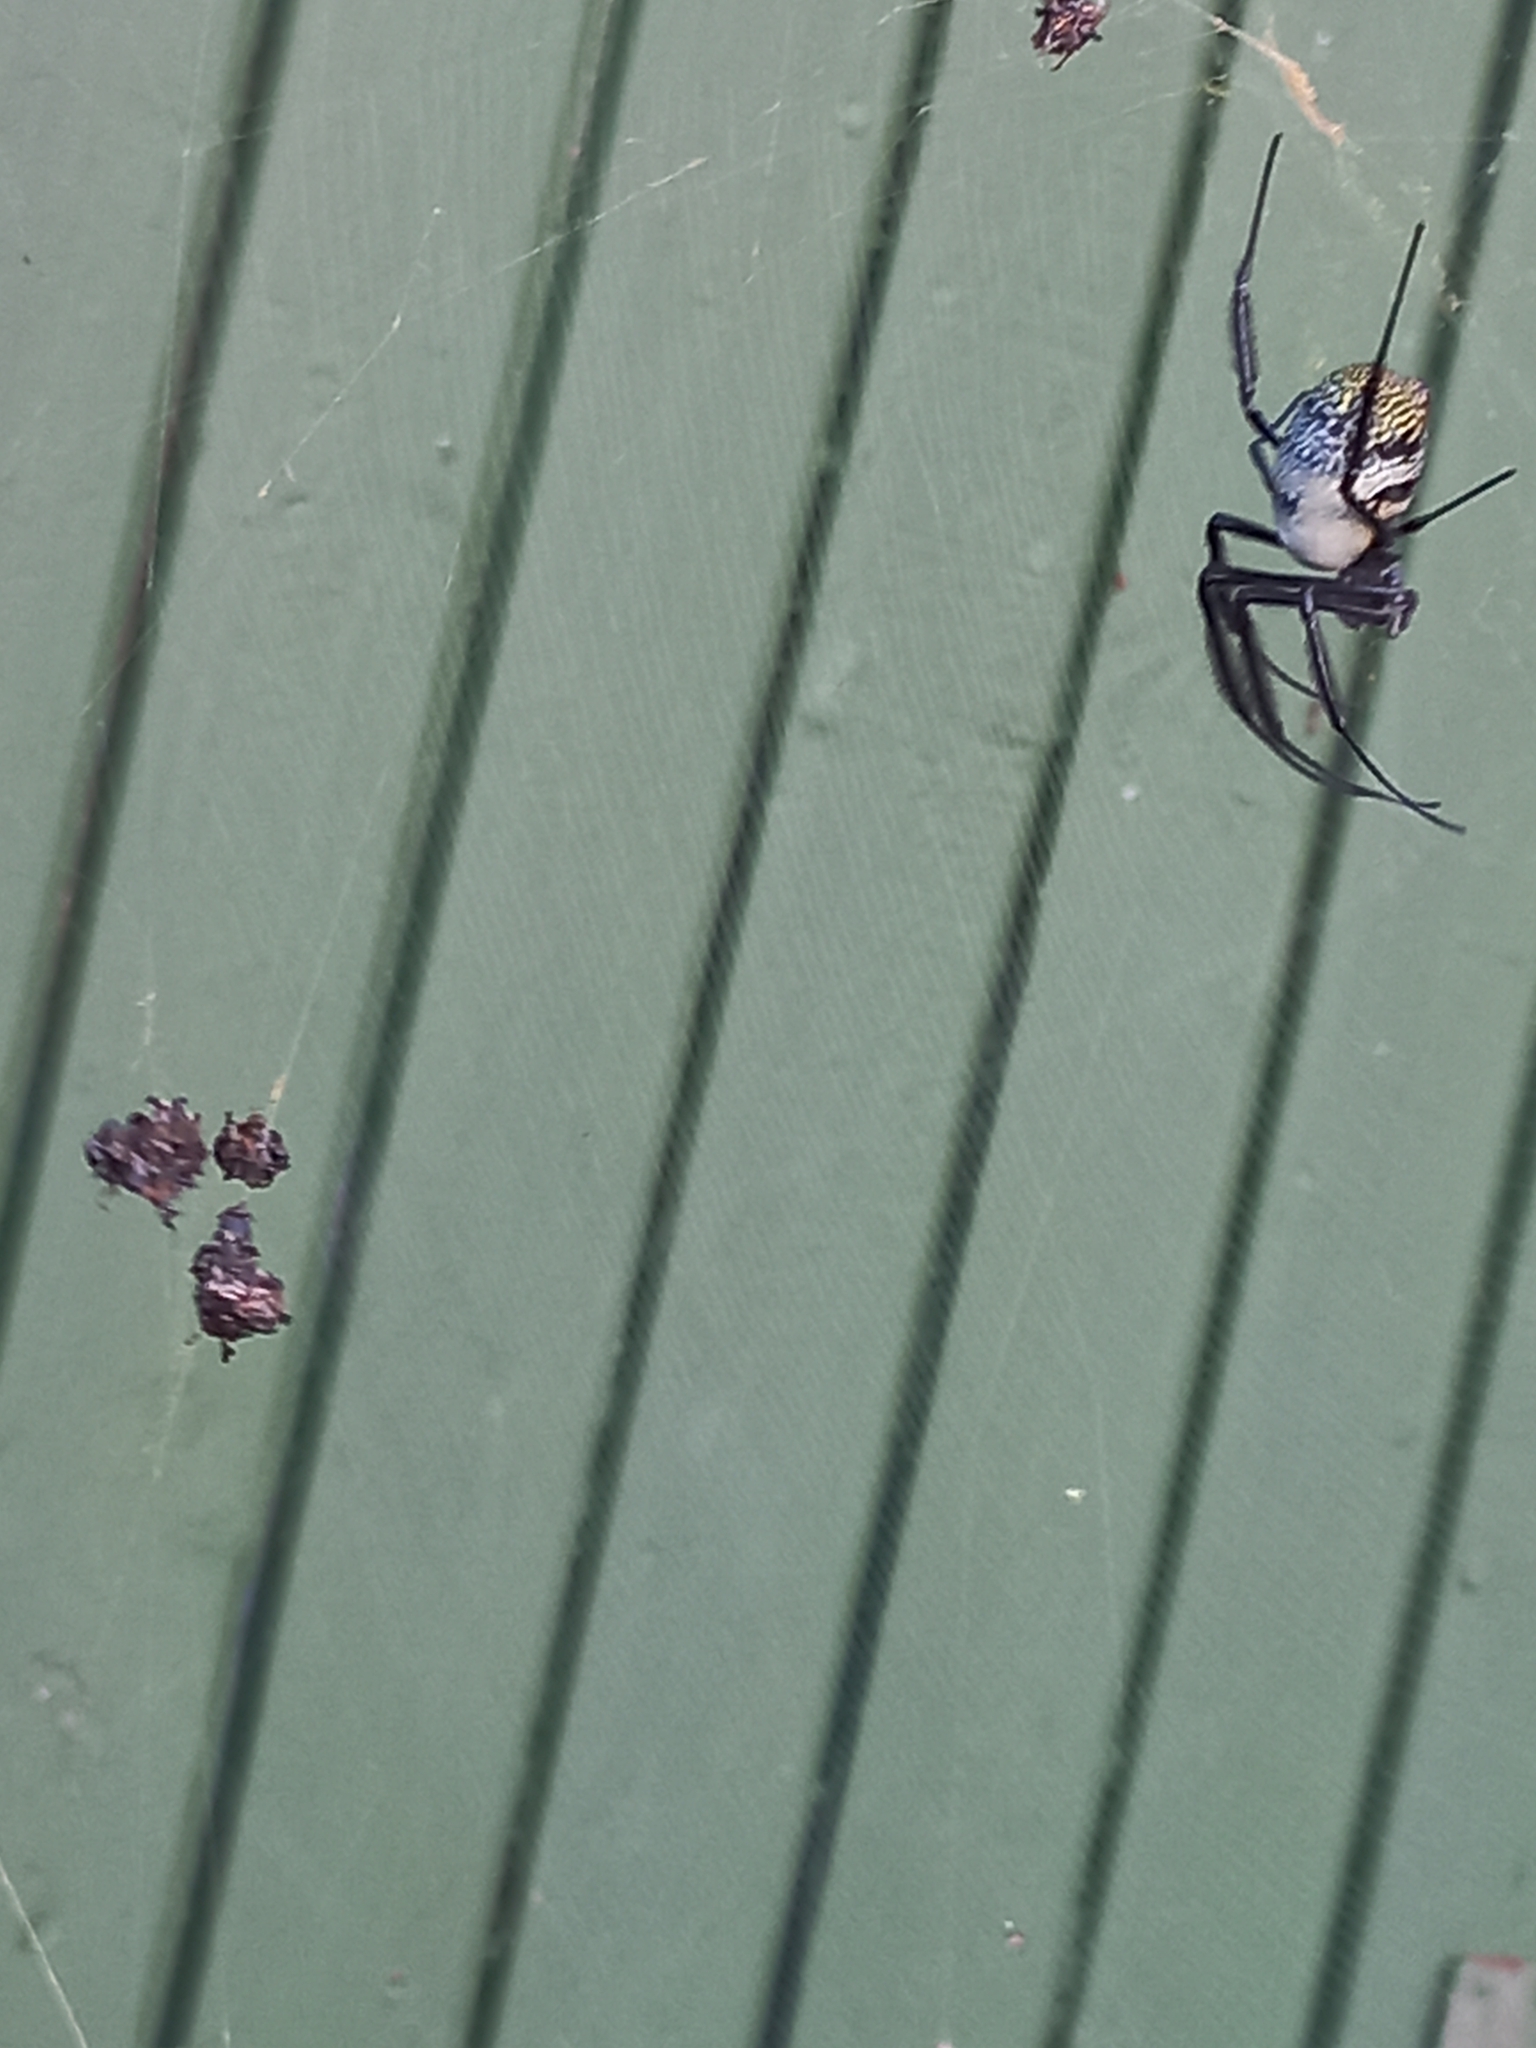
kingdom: Animalia
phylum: Arthropoda
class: Arachnida
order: Araneae
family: Araneidae
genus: Trichonephila
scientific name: Trichonephila fenestrata
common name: Hairy golden orb weaver
